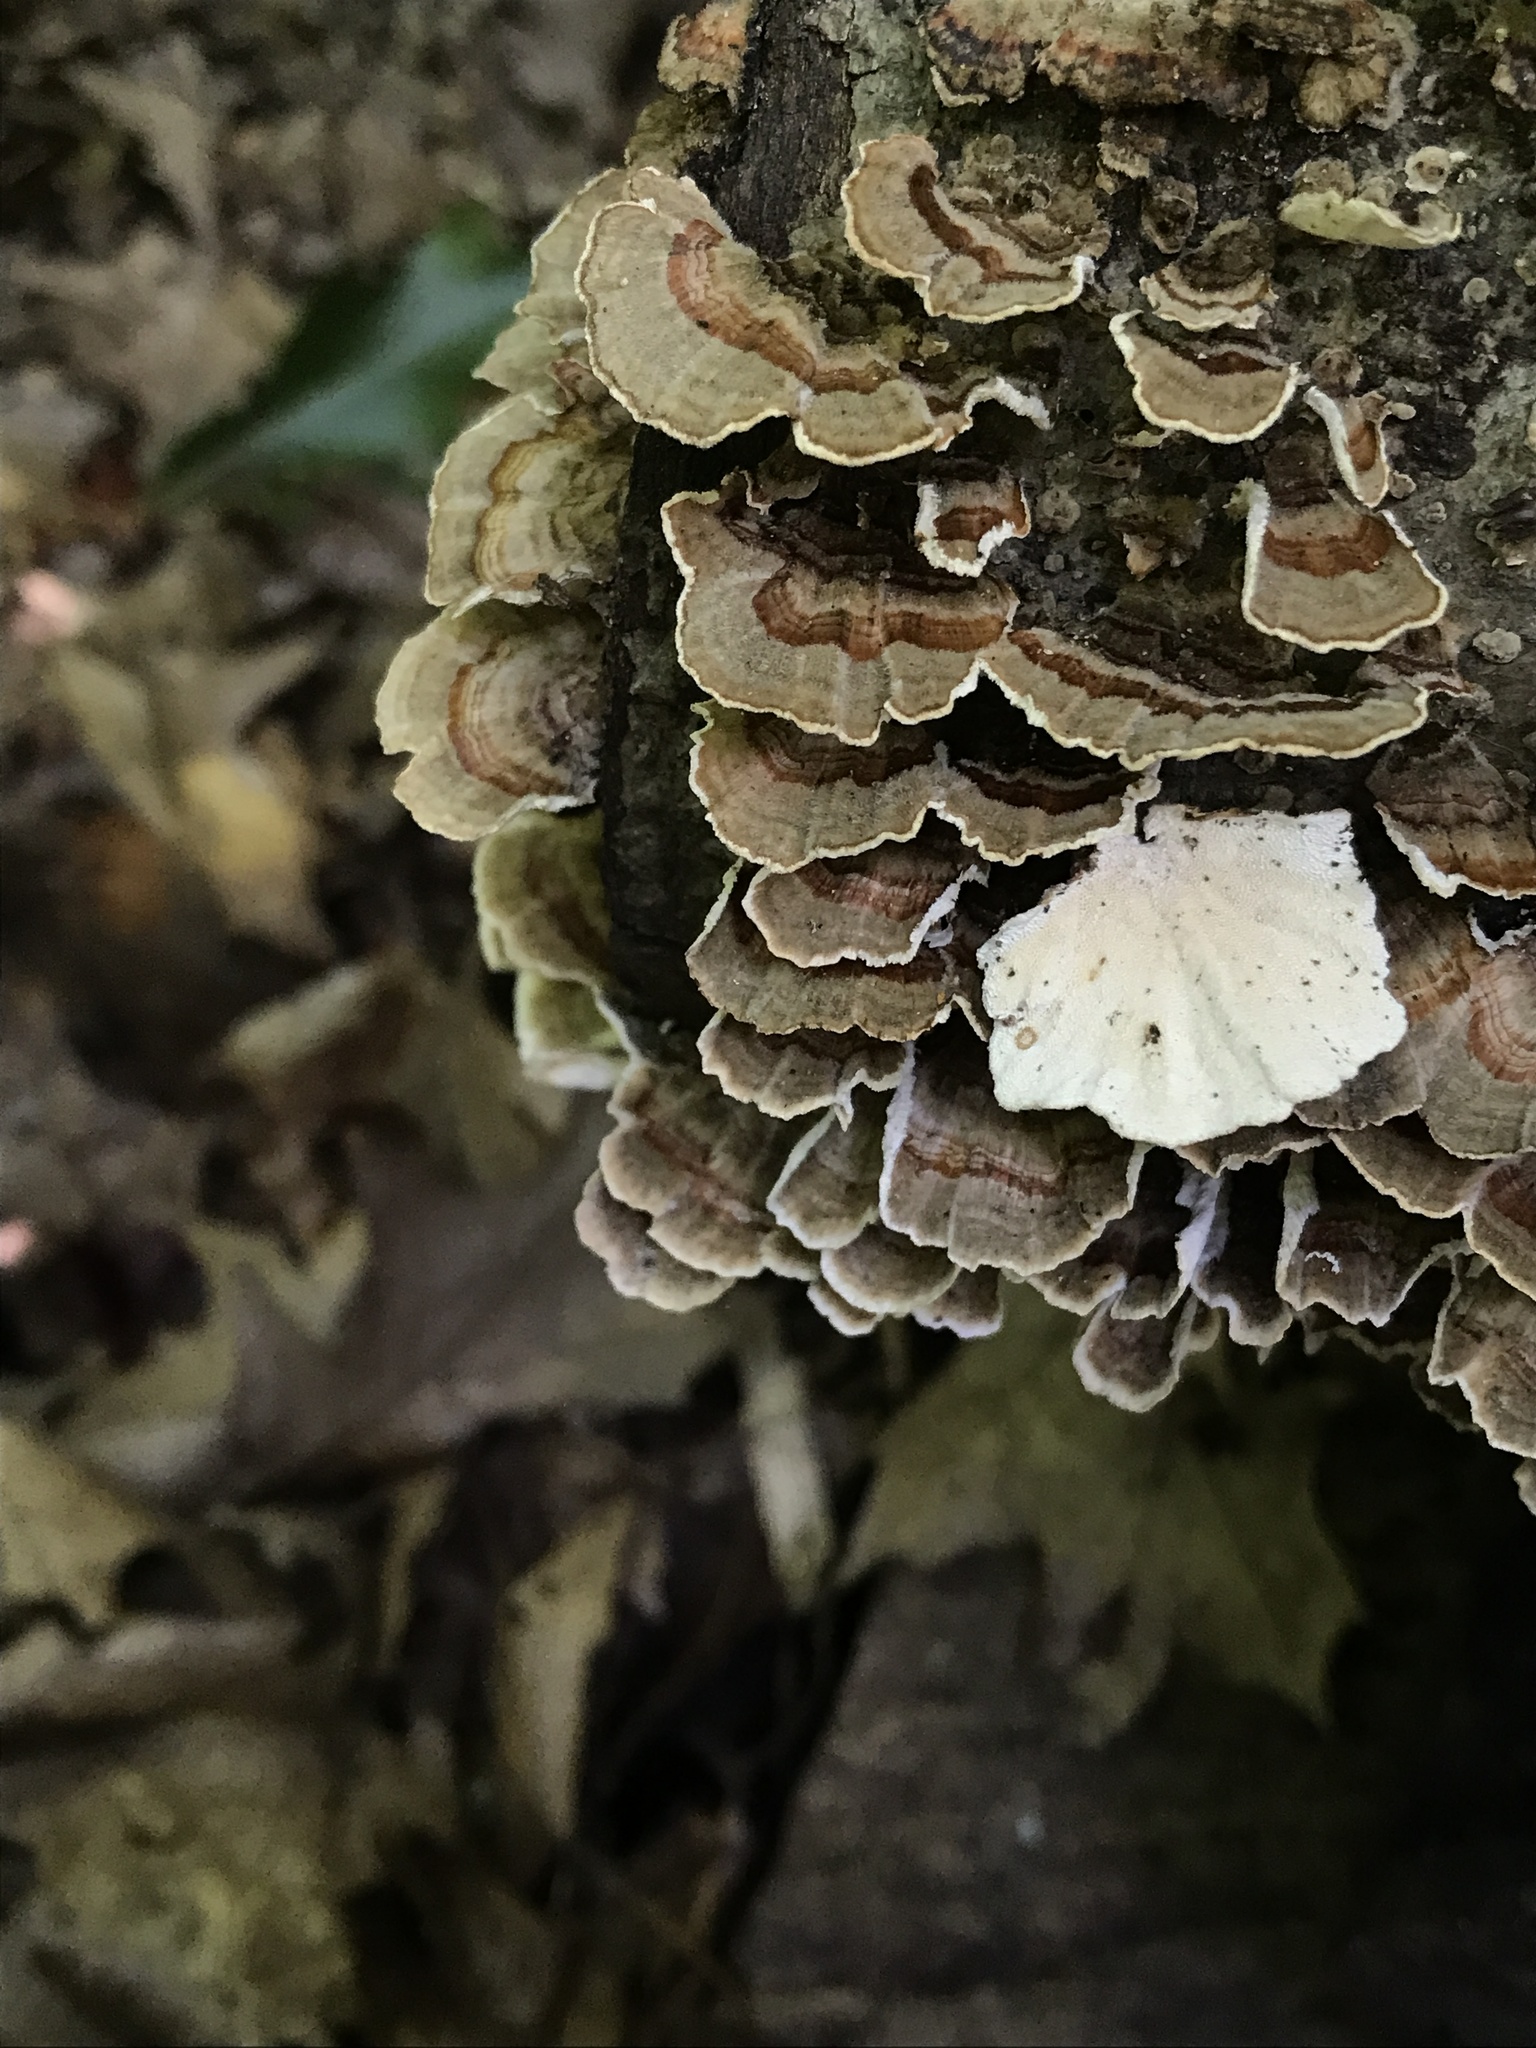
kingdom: Fungi
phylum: Basidiomycota
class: Agaricomycetes
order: Polyporales
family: Polyporaceae
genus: Trametes
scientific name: Trametes versicolor
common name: Turkeytail
